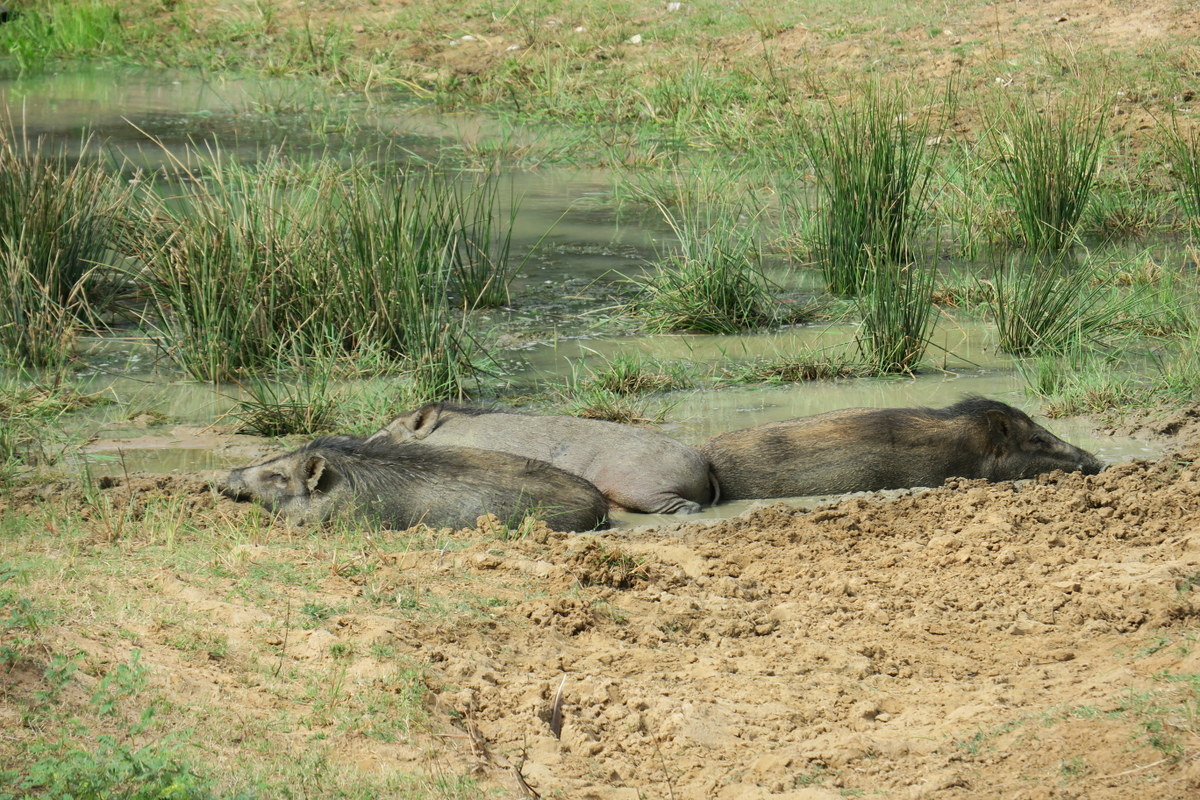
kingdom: Animalia
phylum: Chordata
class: Mammalia
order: Artiodactyla
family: Suidae
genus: Sus
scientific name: Sus scrofa
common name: Wild boar
